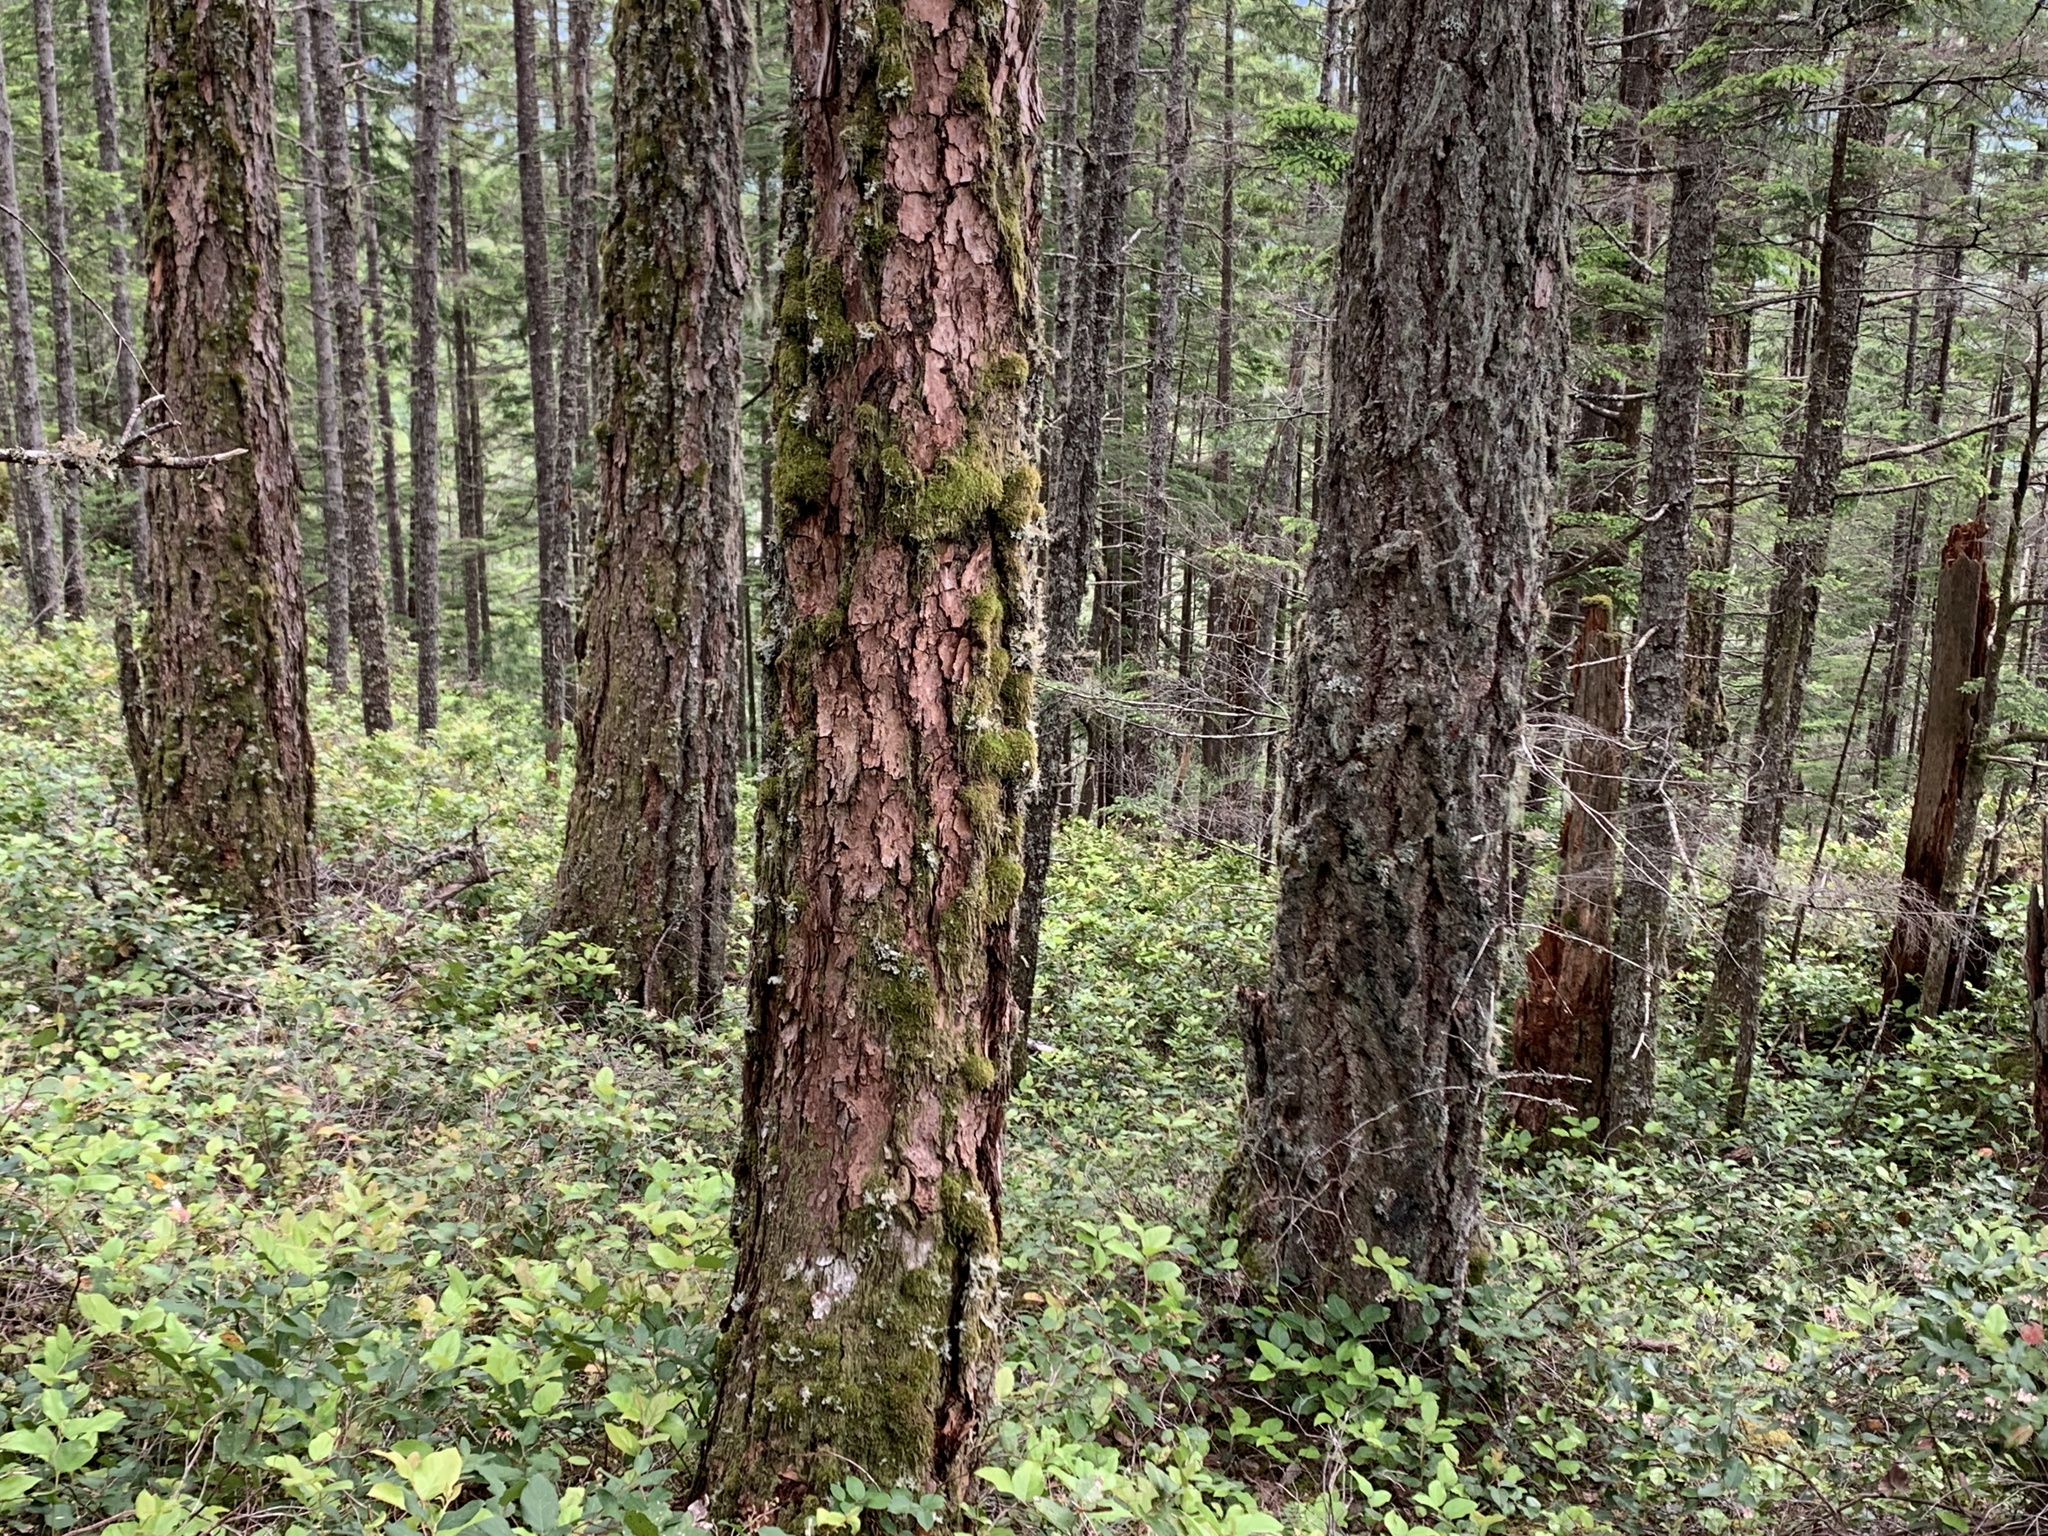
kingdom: Plantae
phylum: Tracheophyta
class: Pinopsida
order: Pinales
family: Pinaceae
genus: Pseudotsuga
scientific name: Pseudotsuga menziesii
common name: Douglas fir
